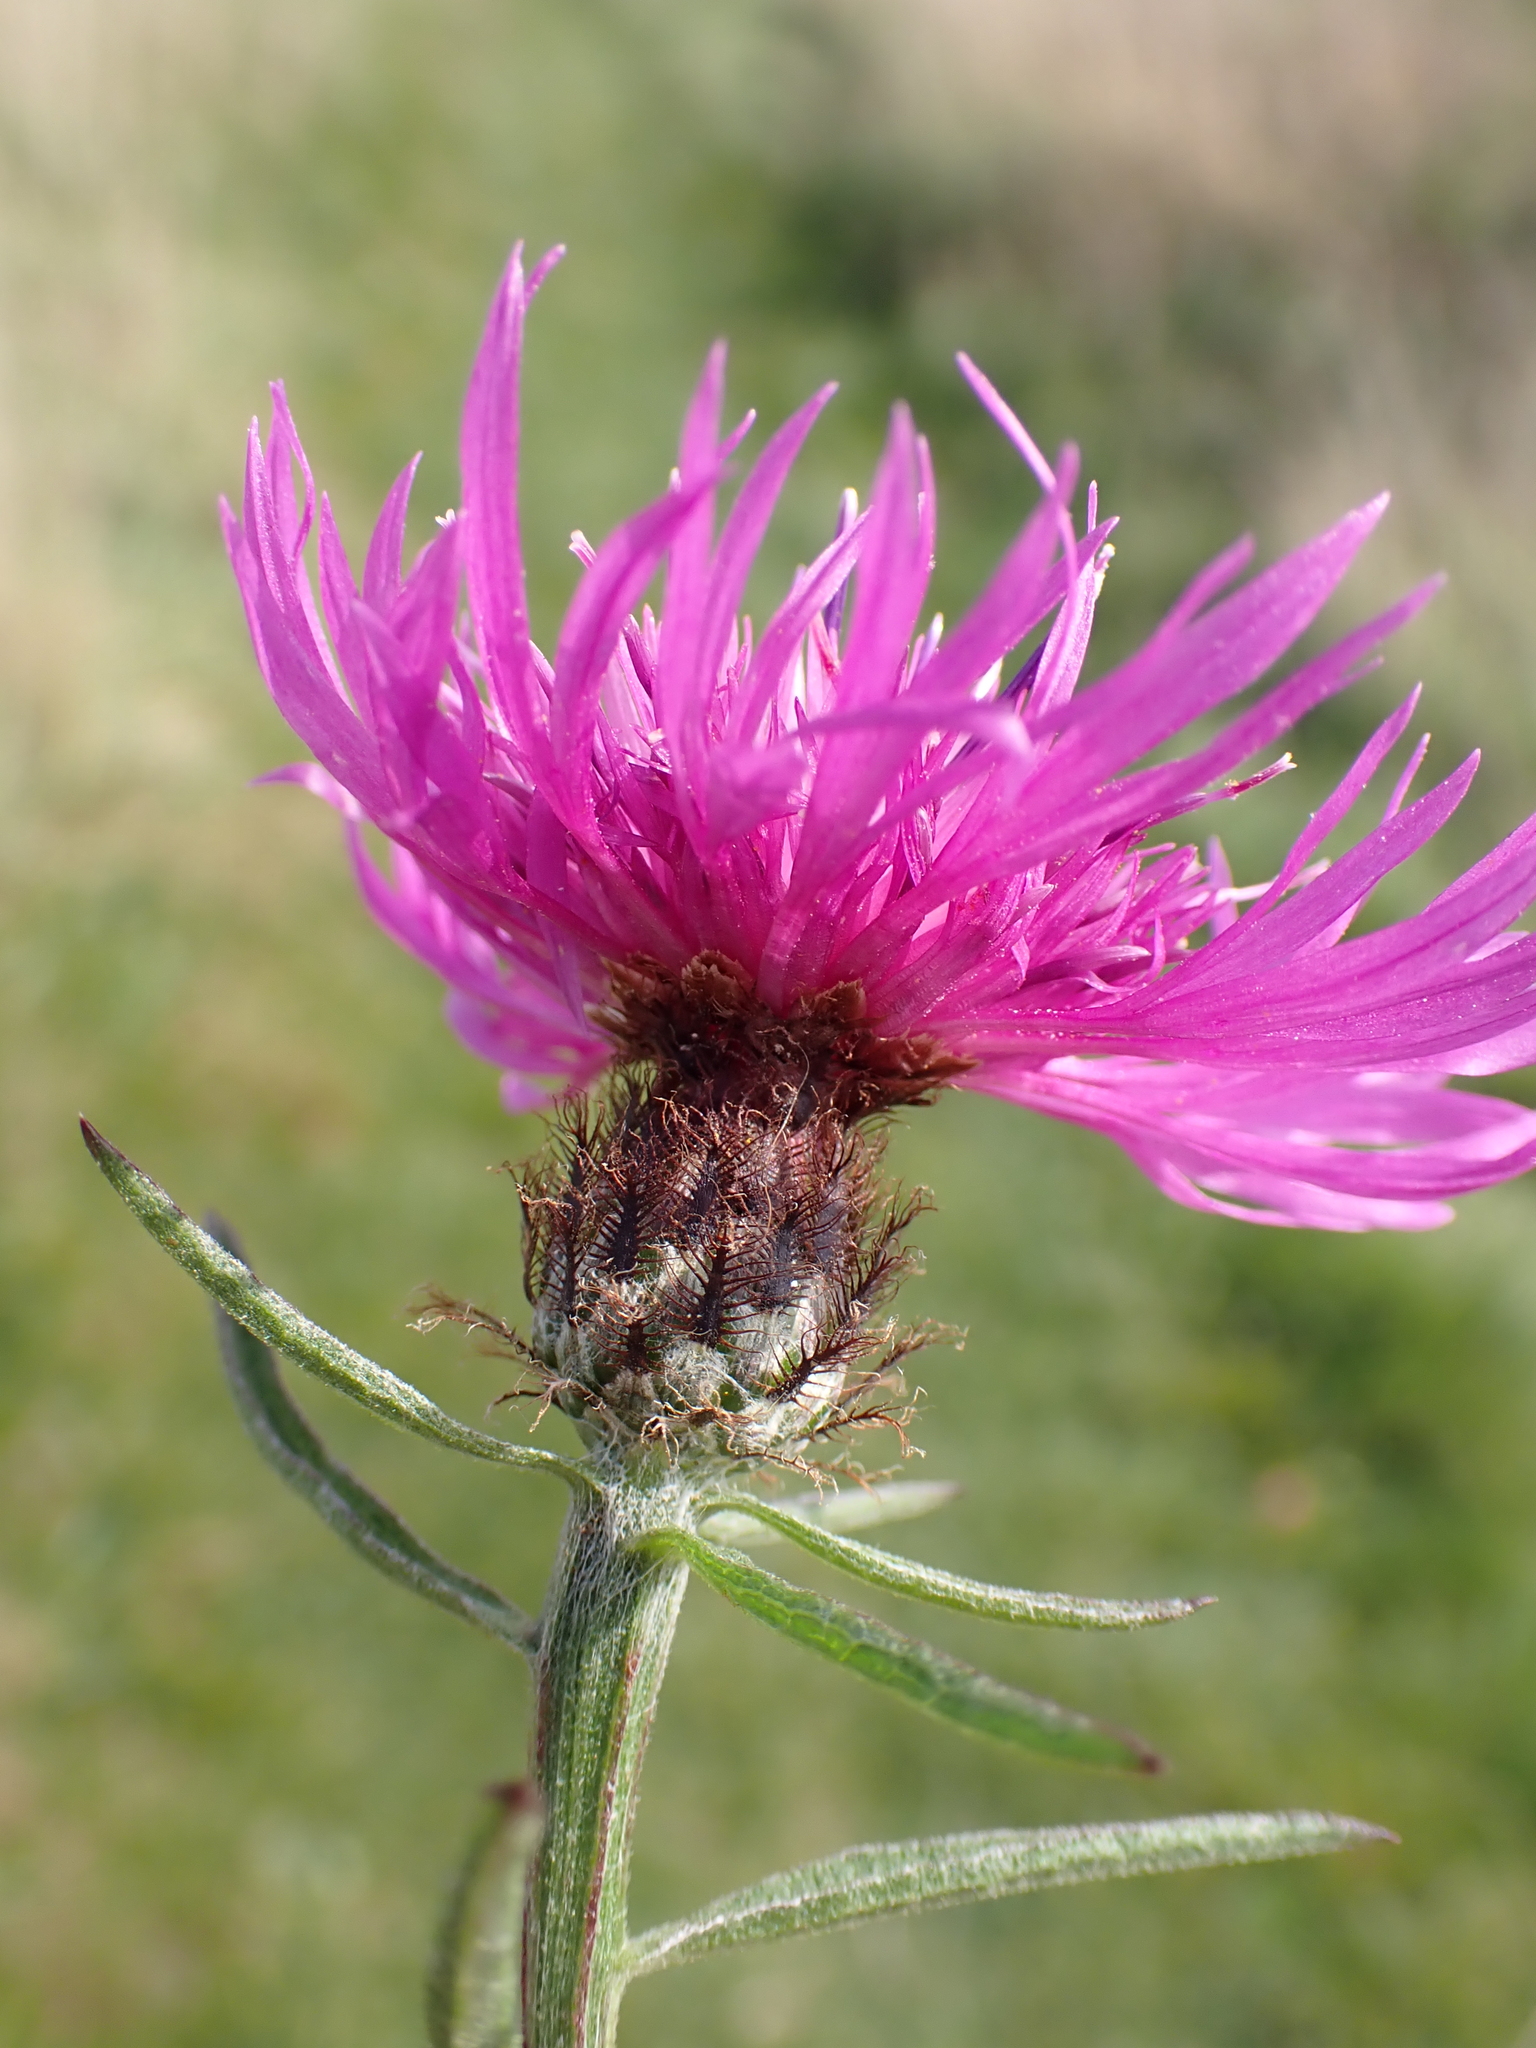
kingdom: Plantae
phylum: Tracheophyta
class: Magnoliopsida
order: Asterales
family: Asteraceae
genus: Centaurea
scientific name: Centaurea debeauxii
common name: Slender knapweed
